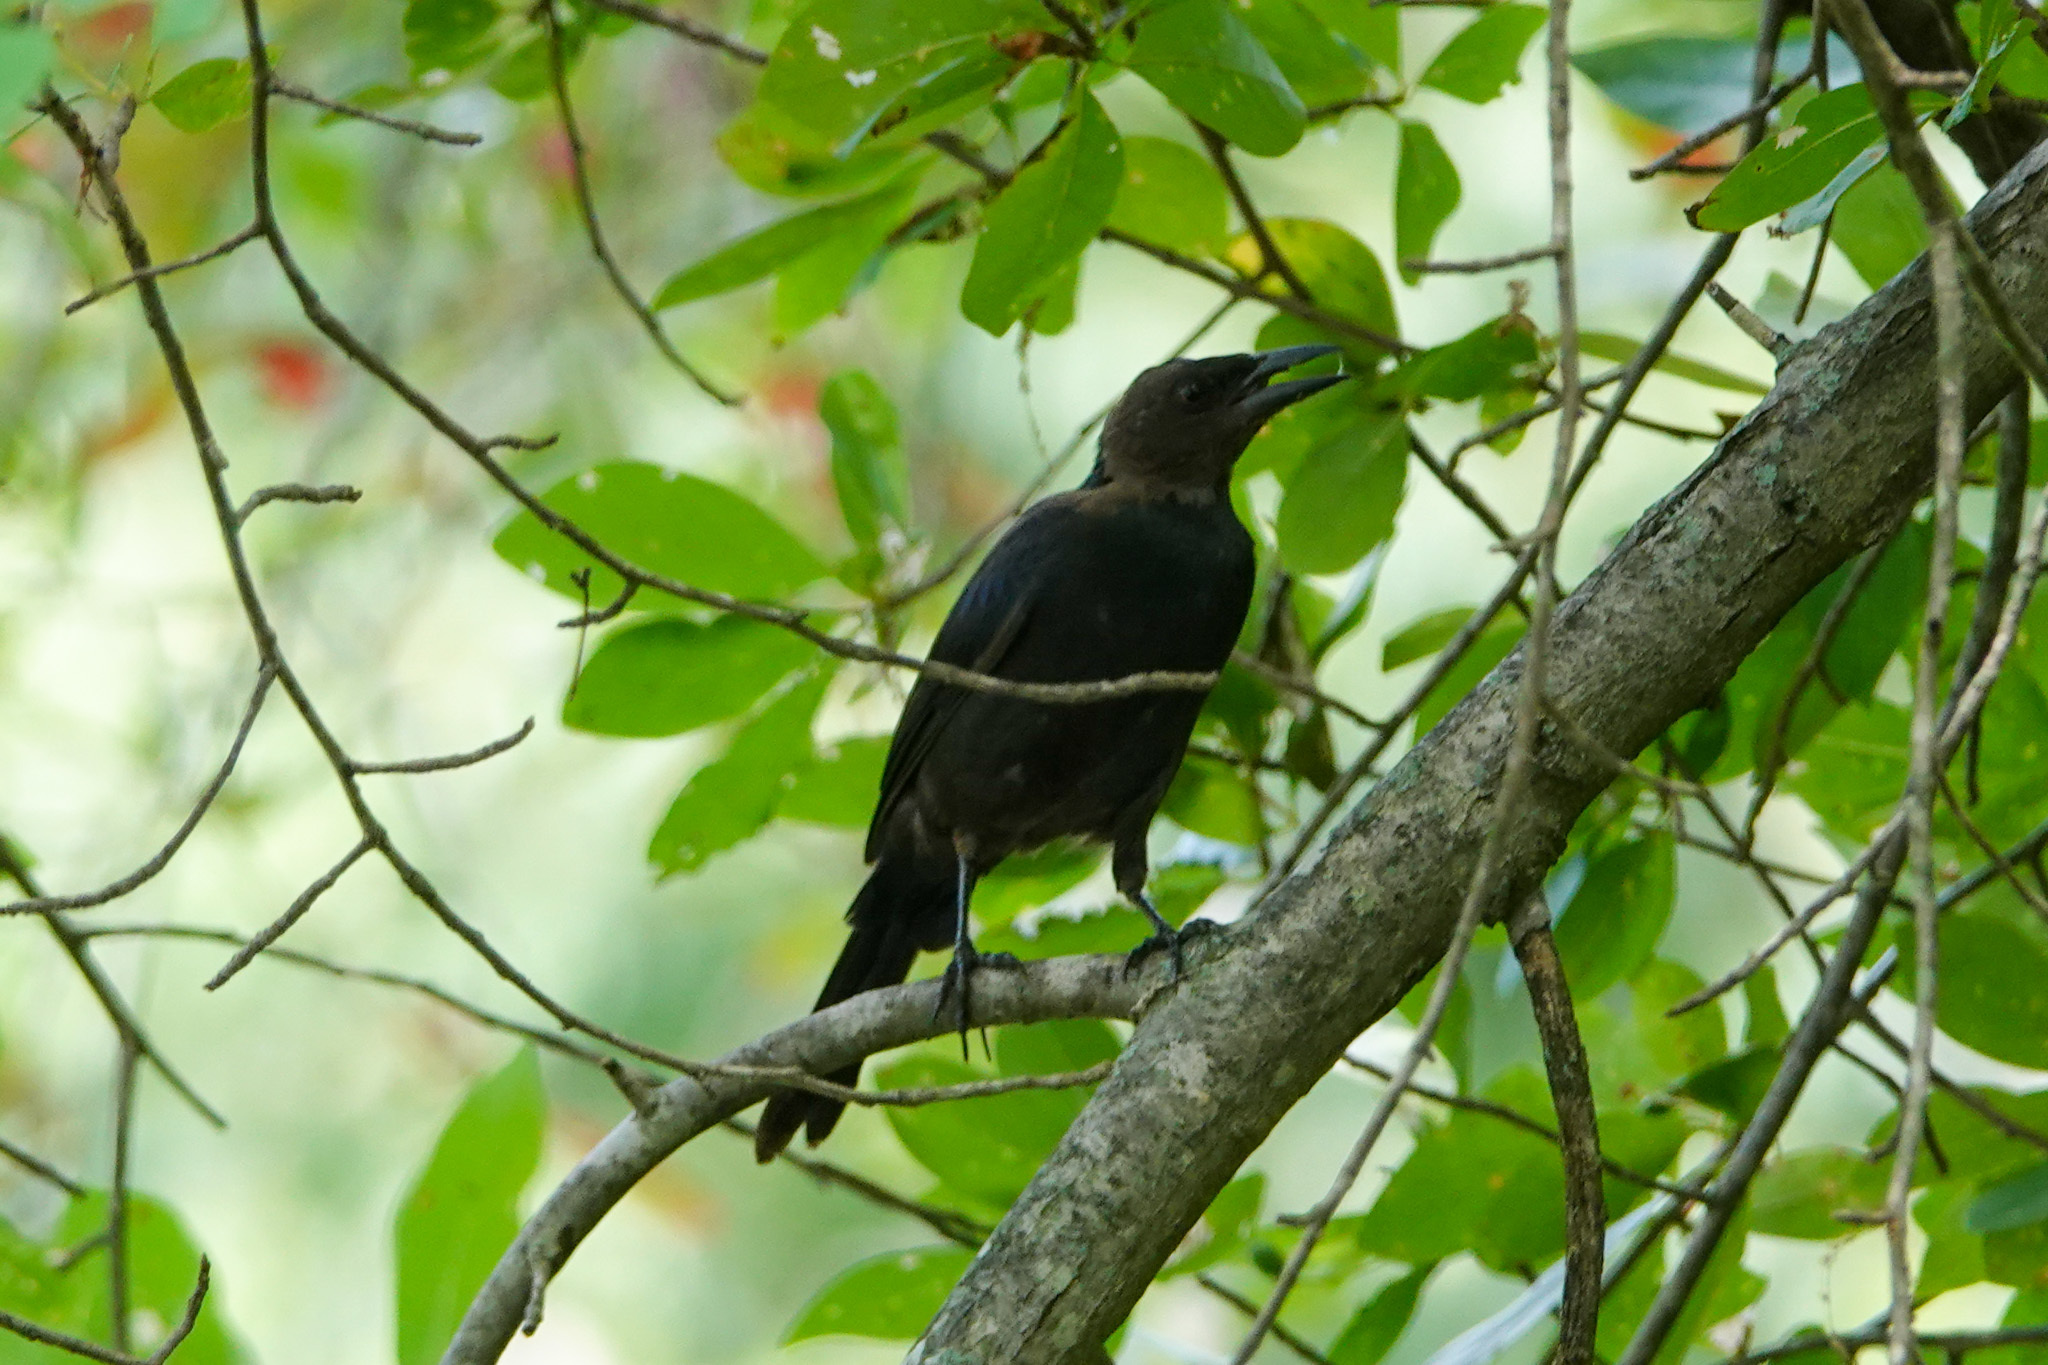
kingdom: Animalia
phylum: Chordata
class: Aves
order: Passeriformes
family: Icteridae
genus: Quiscalus
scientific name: Quiscalus quiscula
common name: Common grackle
